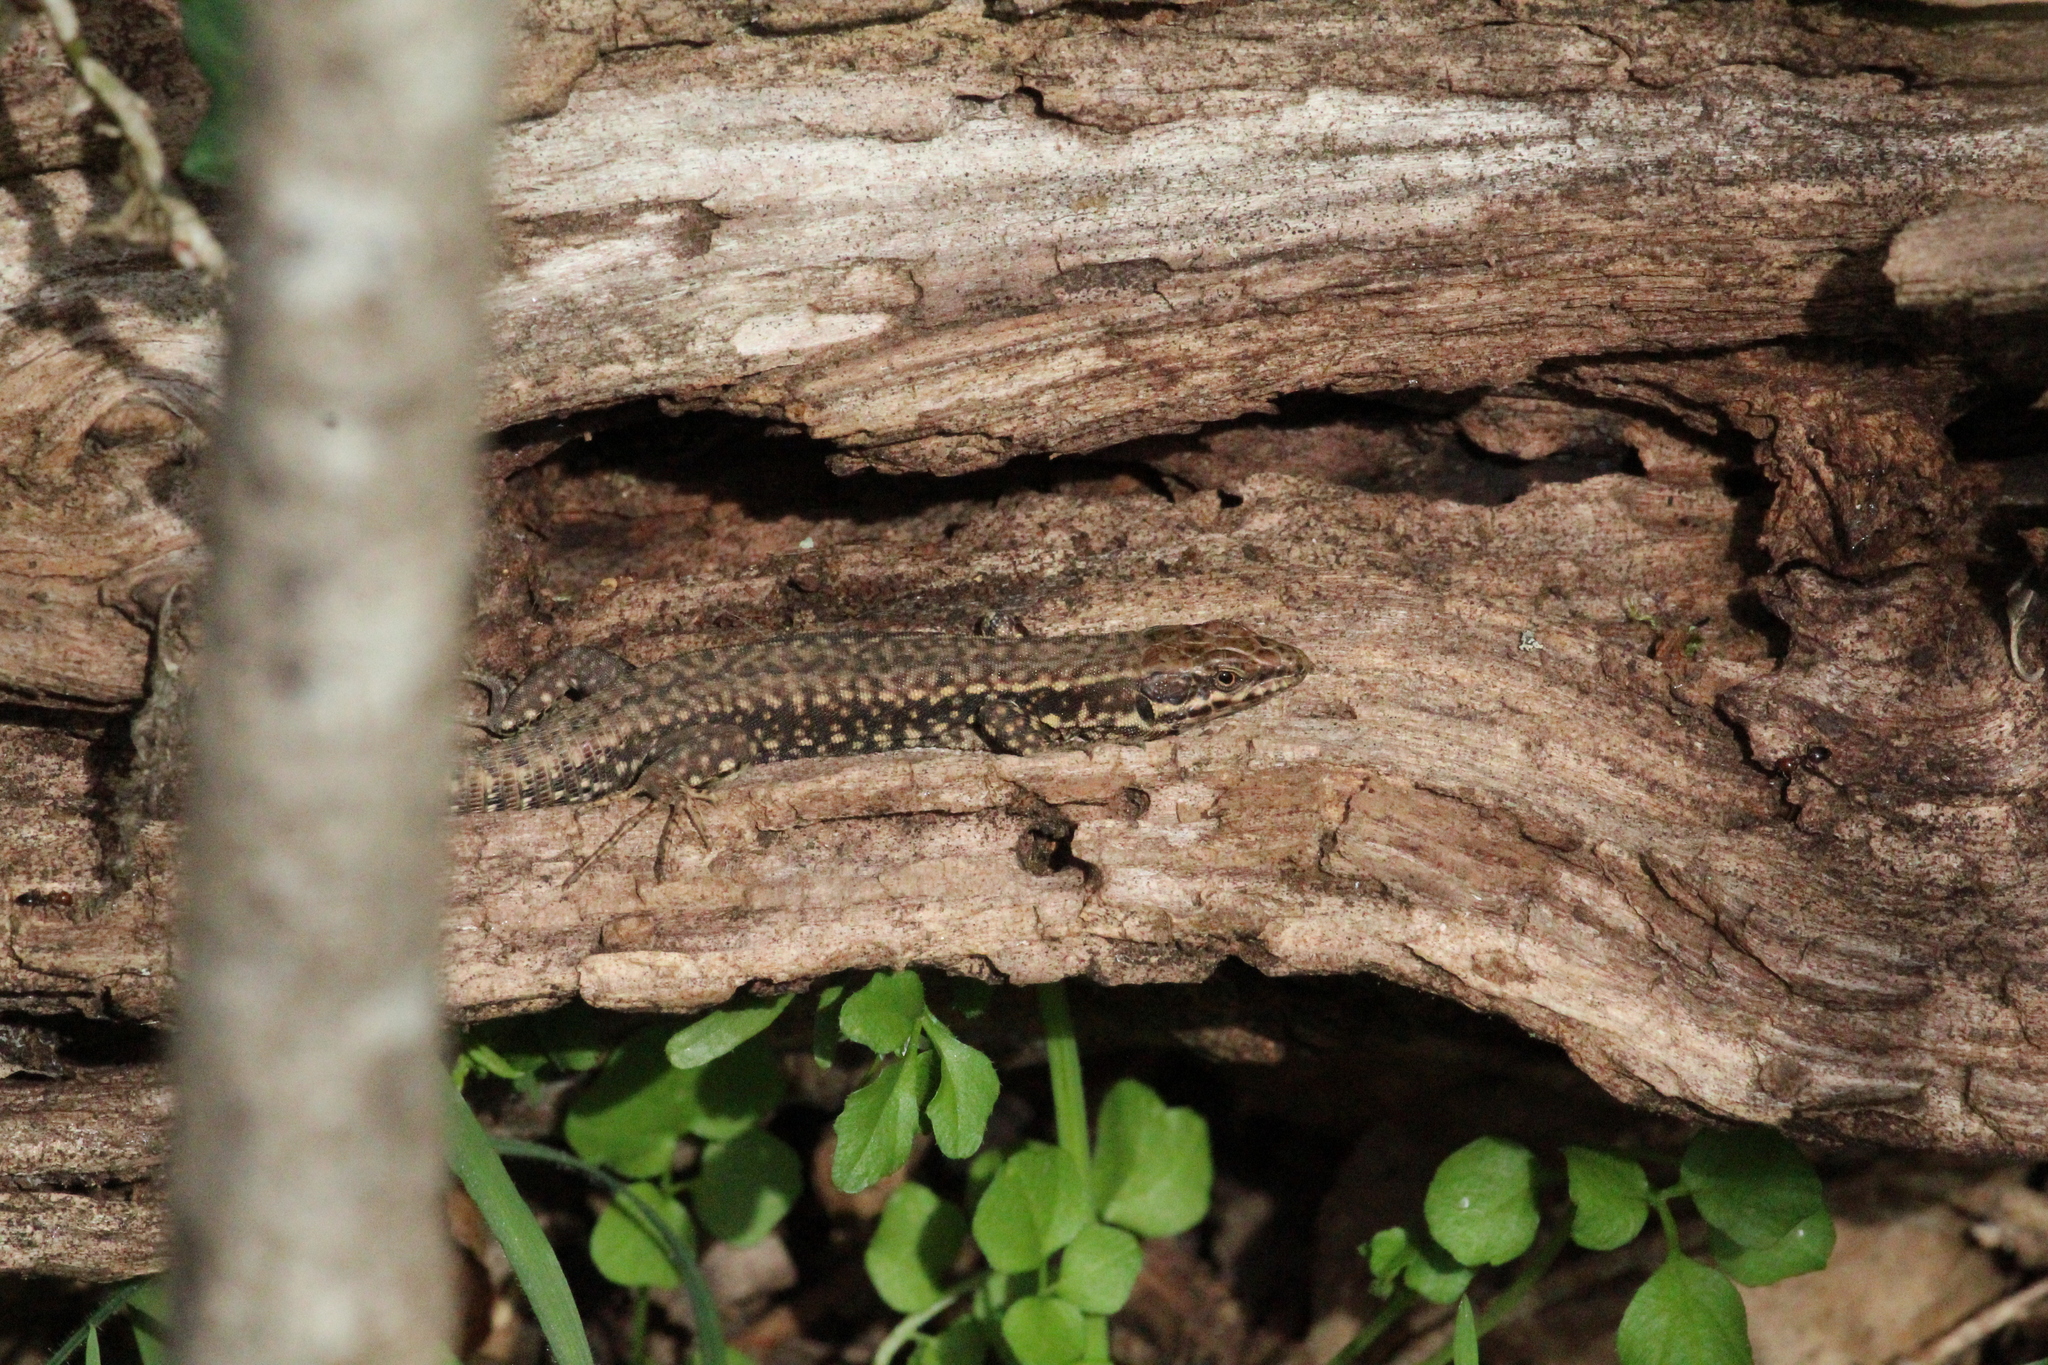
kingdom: Animalia
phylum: Chordata
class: Squamata
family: Lacertidae
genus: Podarcis
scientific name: Podarcis muralis
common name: Common wall lizard
